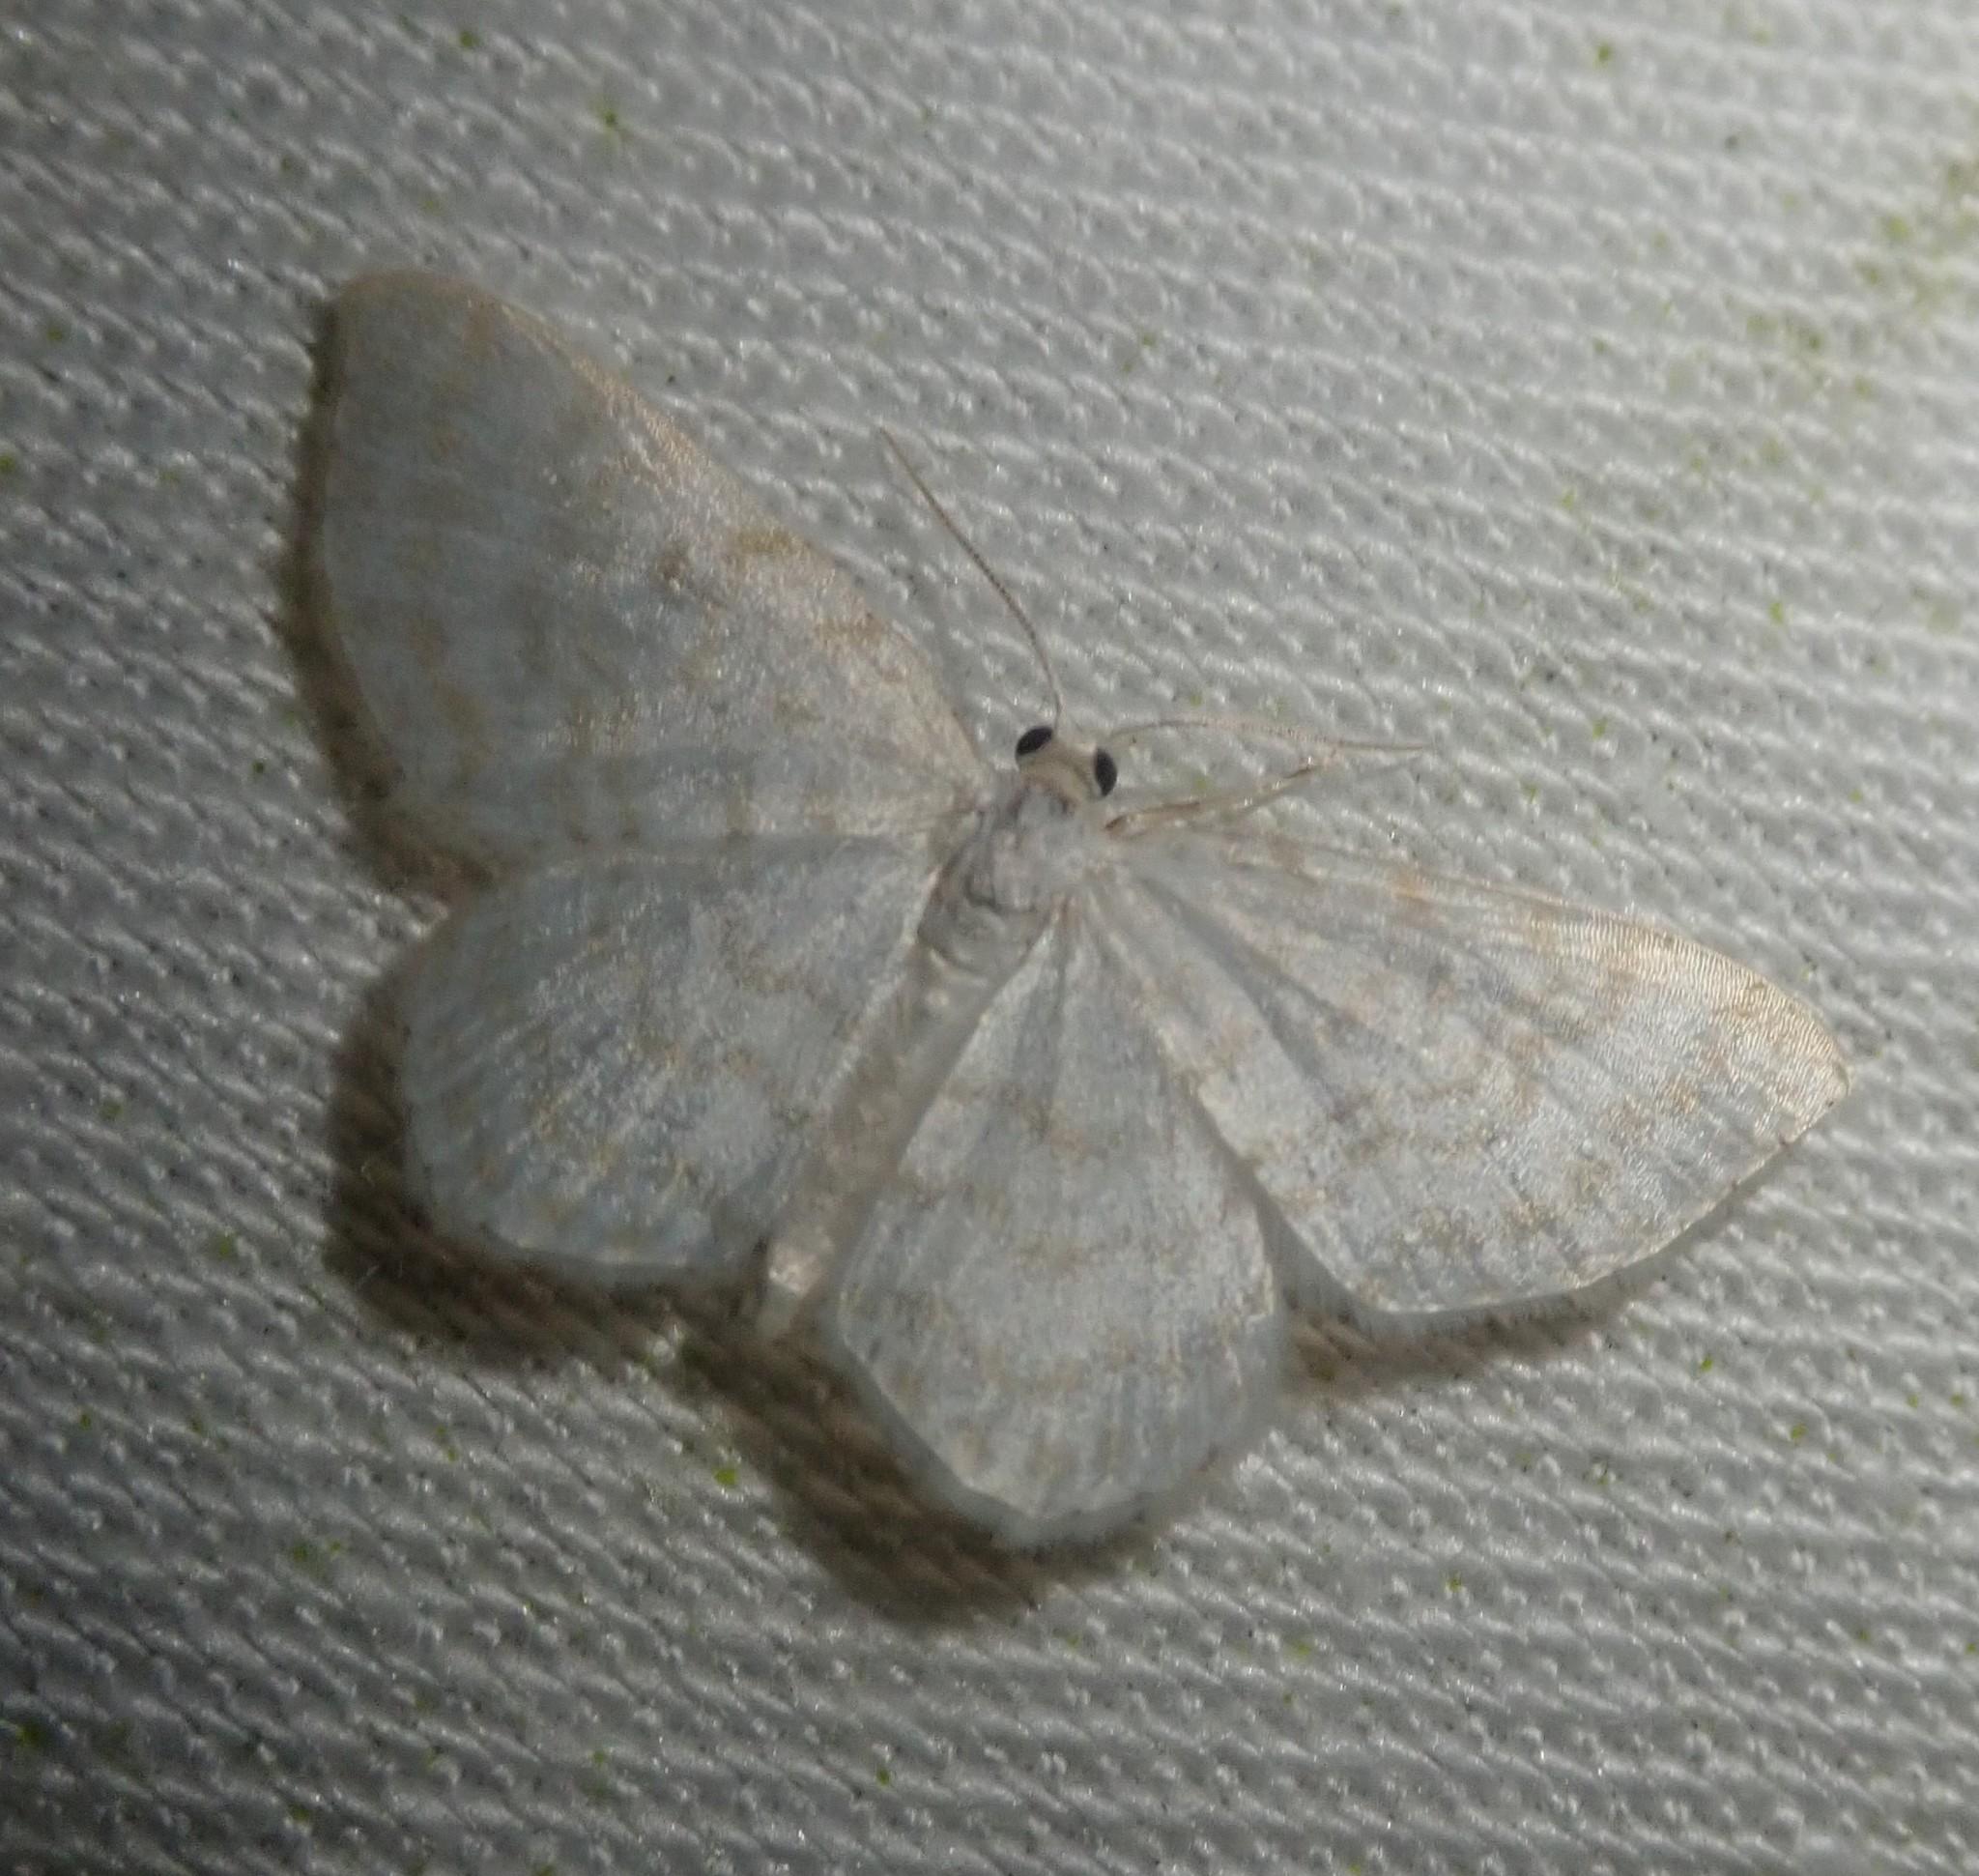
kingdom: Animalia
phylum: Arthropoda
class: Insecta
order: Lepidoptera
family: Geometridae
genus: Asthena
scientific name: Asthena albulata
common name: Small white wave
